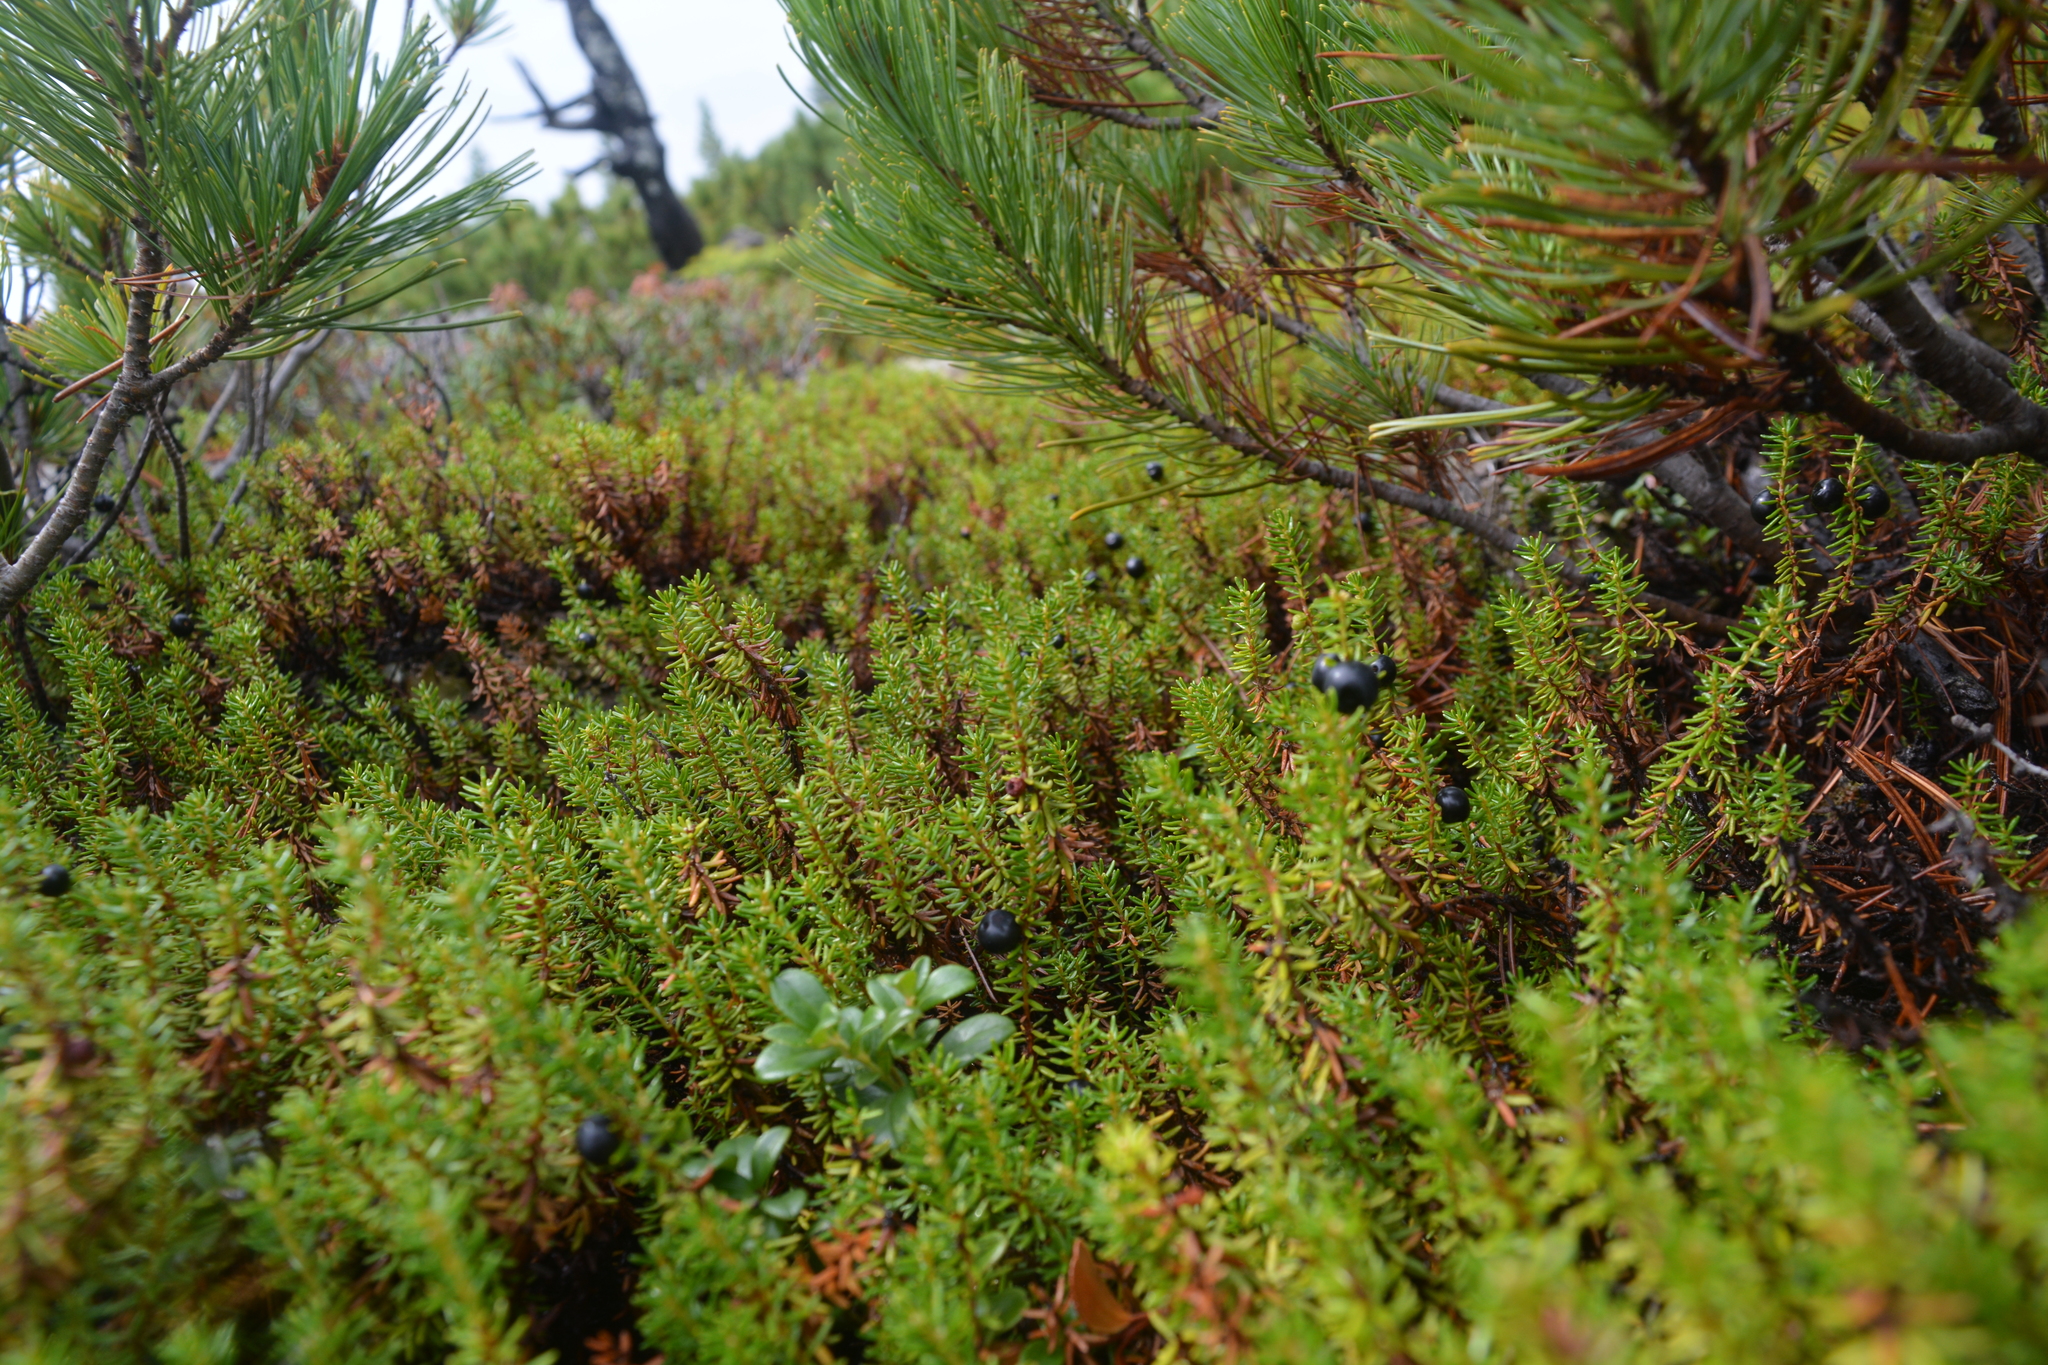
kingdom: Plantae
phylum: Tracheophyta
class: Magnoliopsida
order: Ericales
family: Ericaceae
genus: Empetrum
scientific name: Empetrum nigrum
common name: Black crowberry
